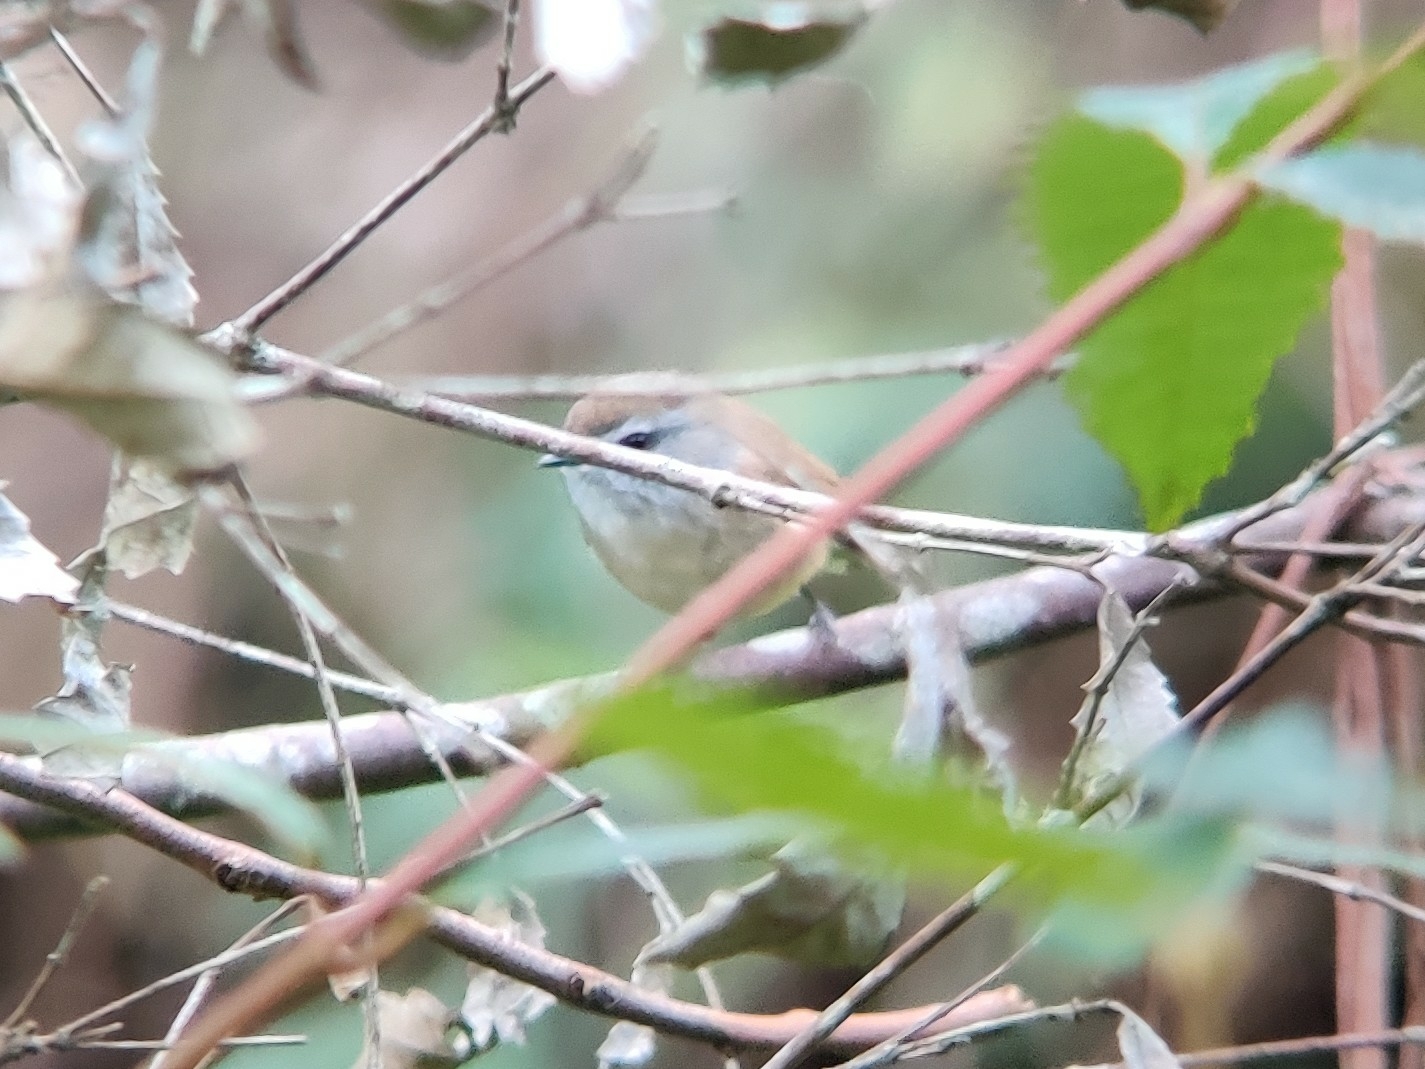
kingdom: Animalia
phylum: Chordata
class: Aves
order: Passeriformes
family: Acanthizidae
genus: Gerygone
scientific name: Gerygone mouki
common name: Brown gerygone
